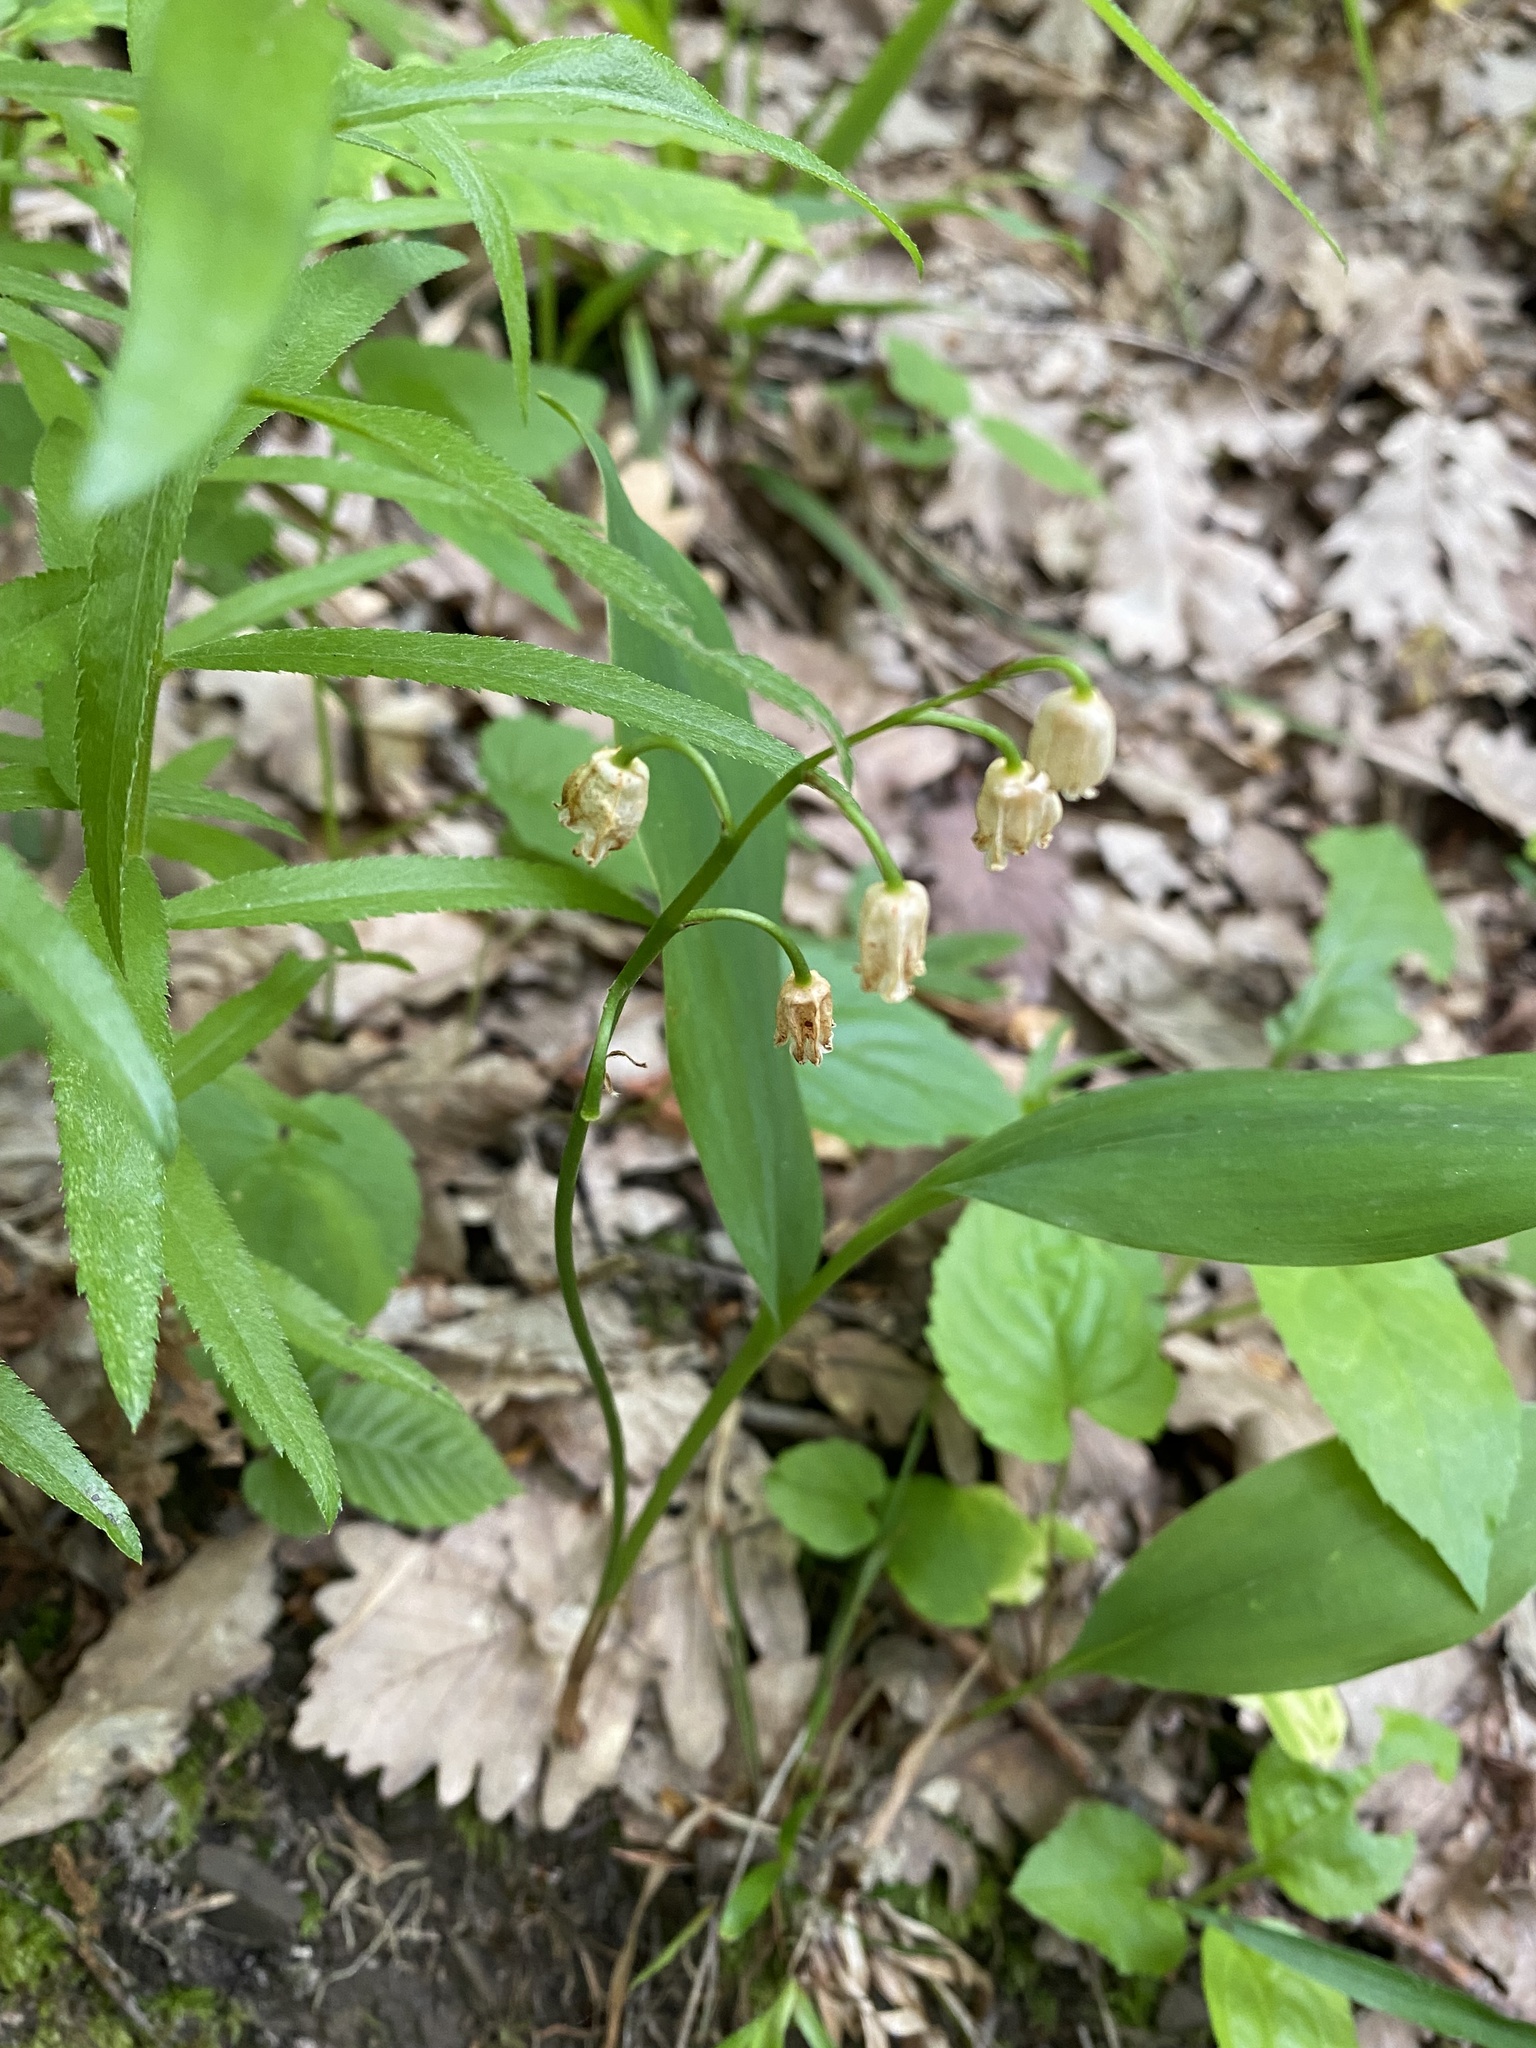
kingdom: Plantae
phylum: Tracheophyta
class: Liliopsida
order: Asparagales
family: Asparagaceae
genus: Convallaria
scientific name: Convallaria majalis
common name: Lily-of-the-valley
